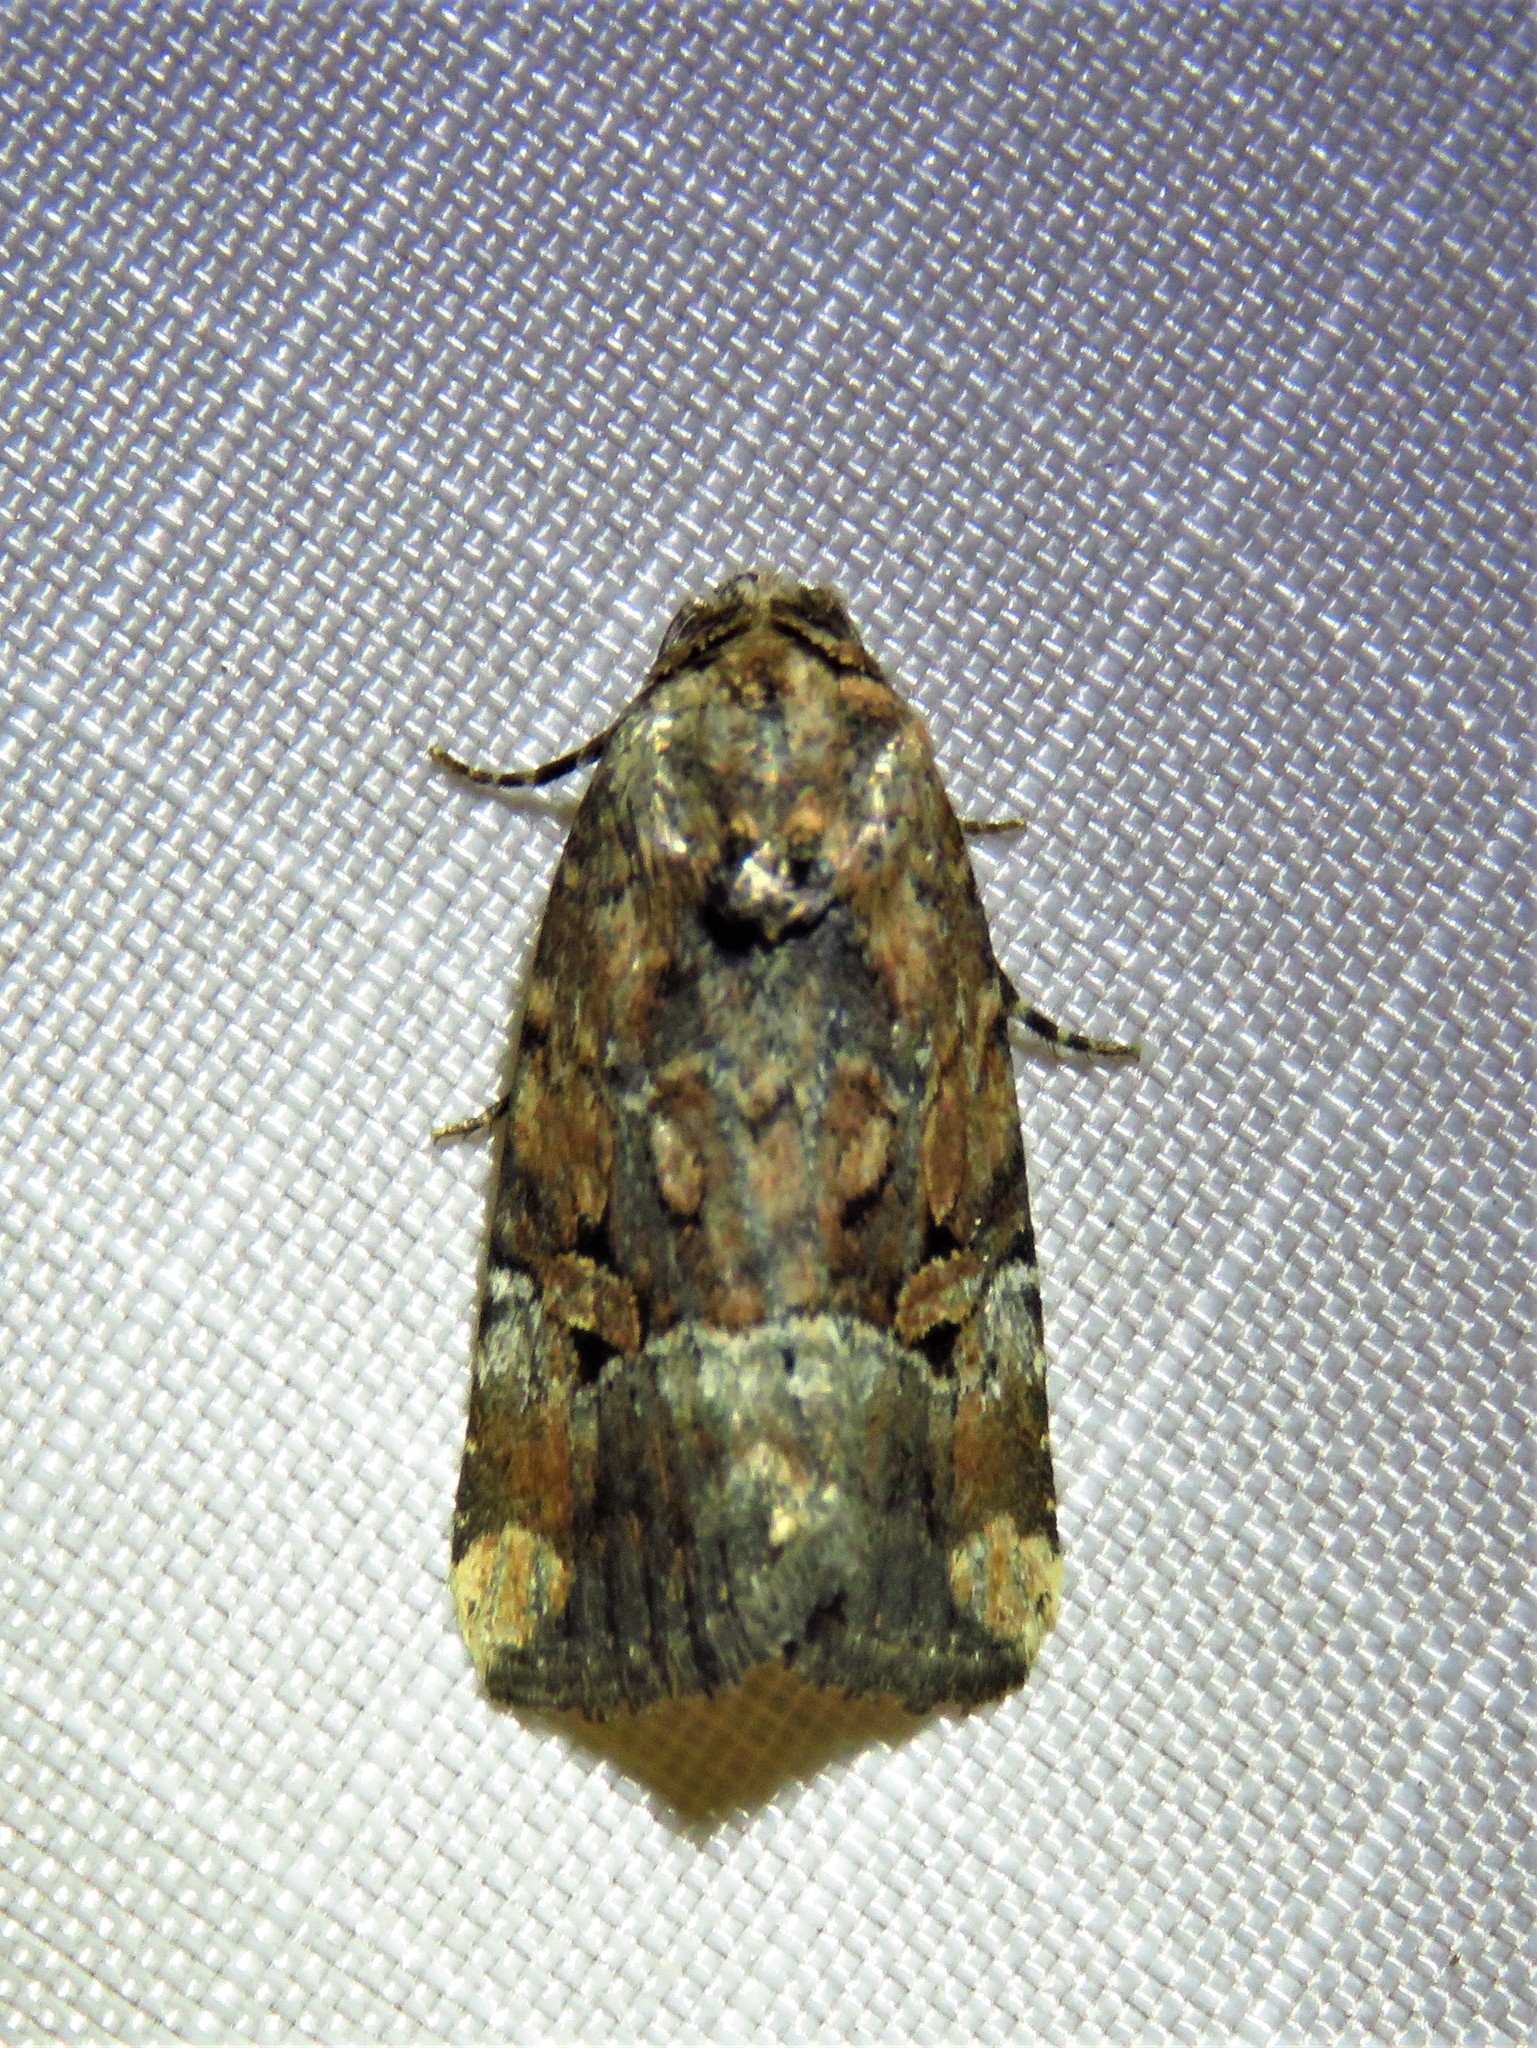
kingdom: Animalia
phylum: Arthropoda
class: Insecta
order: Lepidoptera
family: Noctuidae
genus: Elaphria
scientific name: Elaphria chalcedonia
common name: Chalcedony midget
